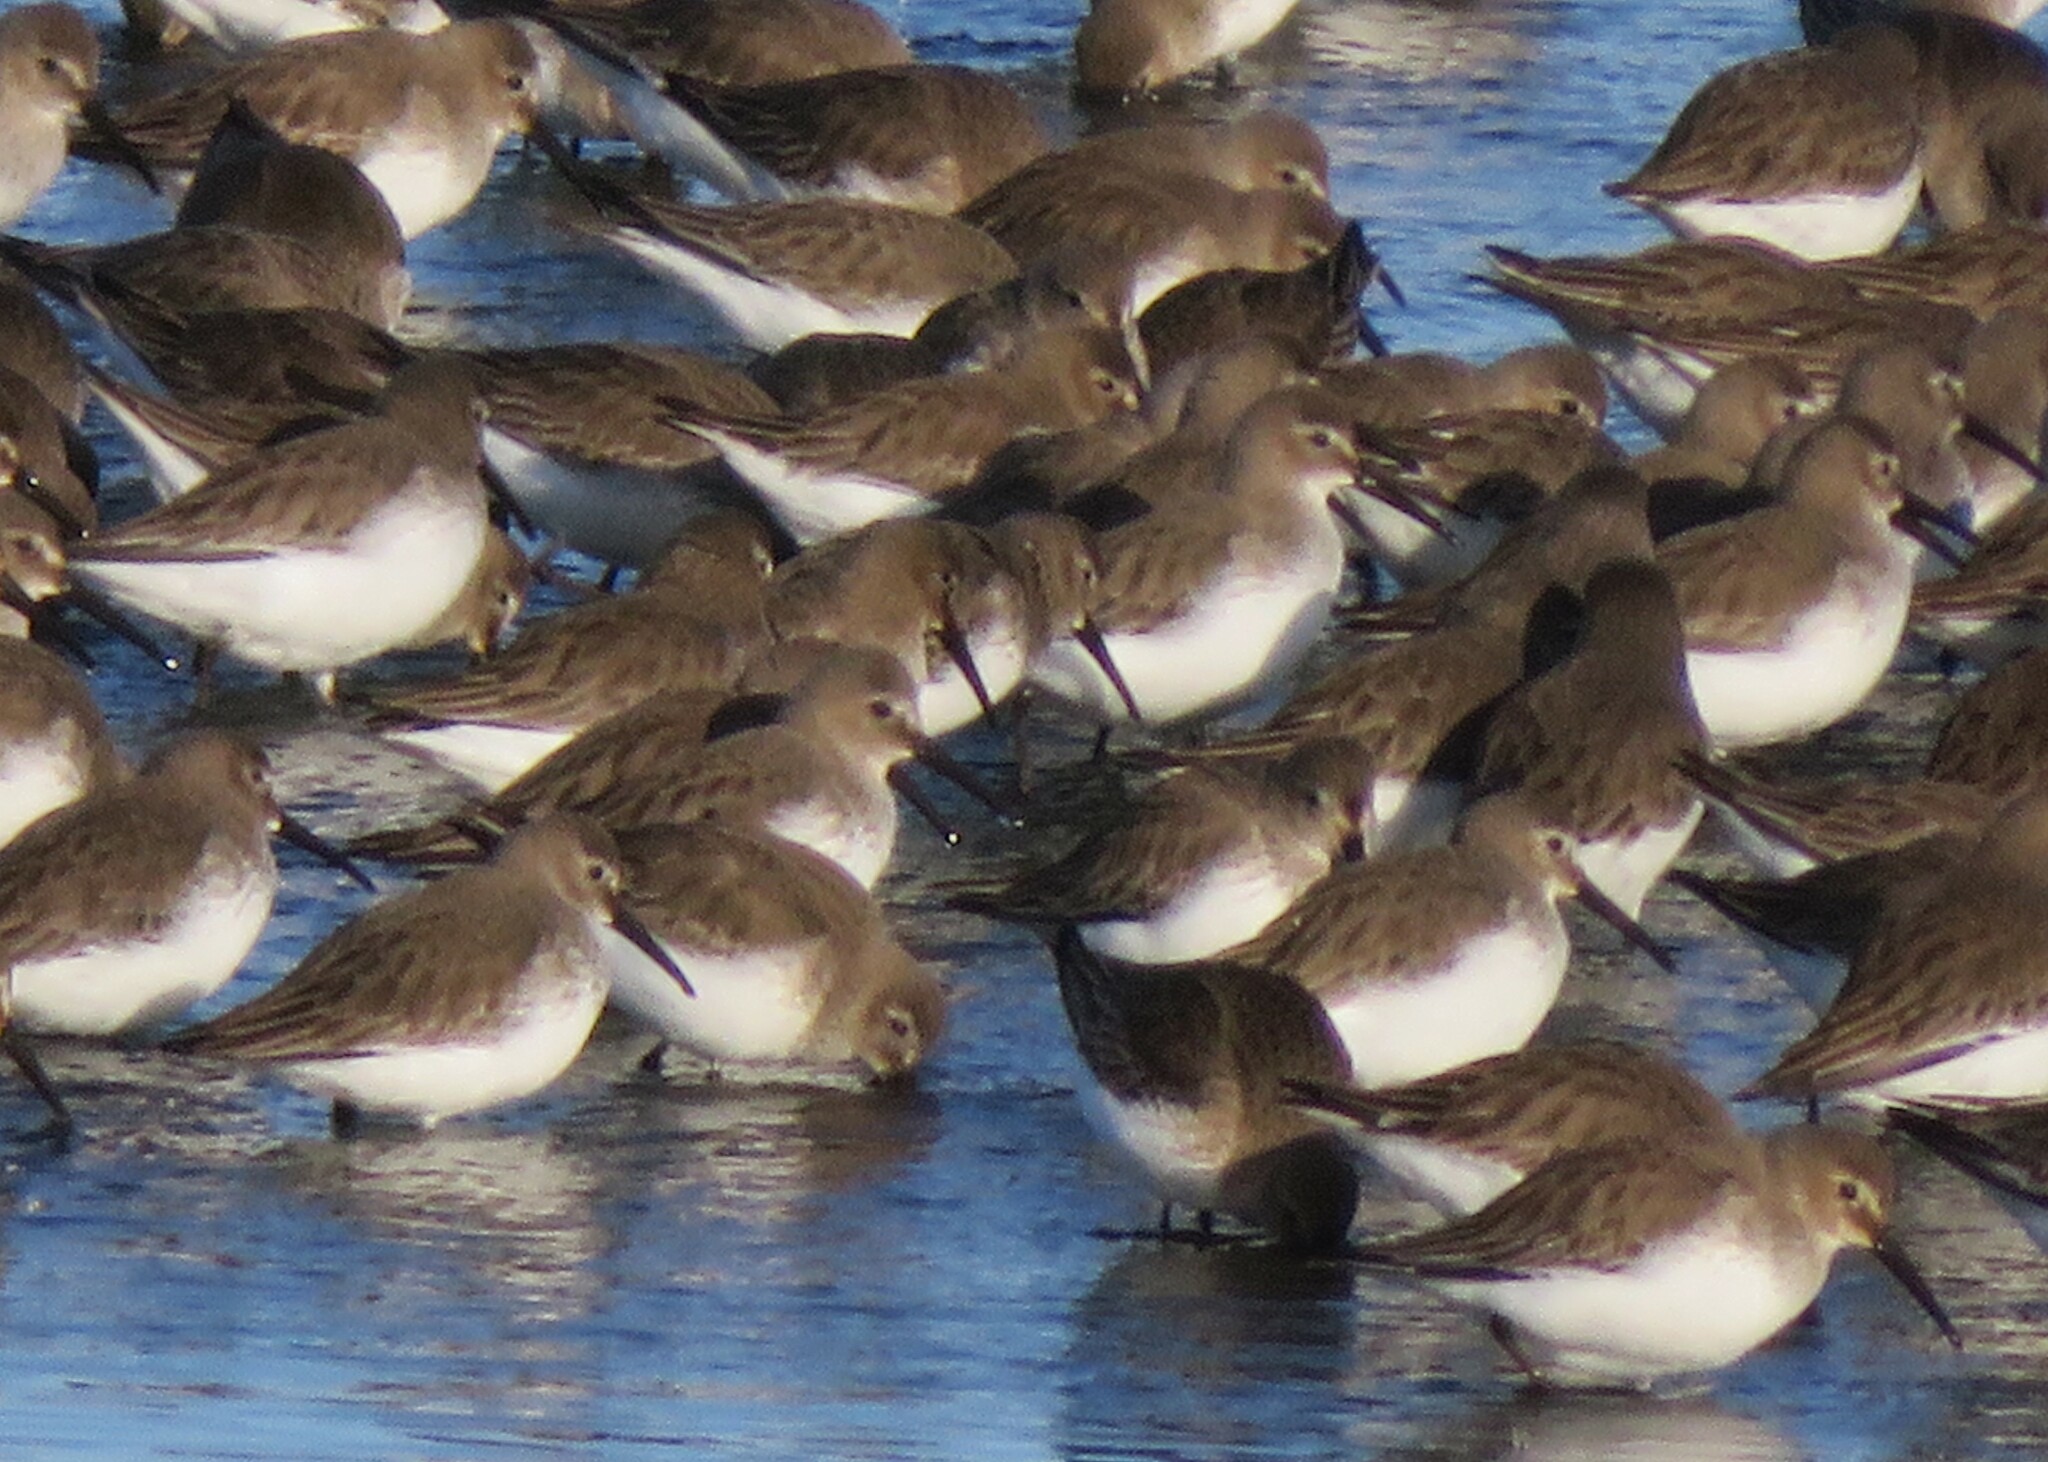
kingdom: Animalia
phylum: Chordata
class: Aves
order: Charadriiformes
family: Scolopacidae
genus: Calidris
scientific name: Calidris alpina
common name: Dunlin
